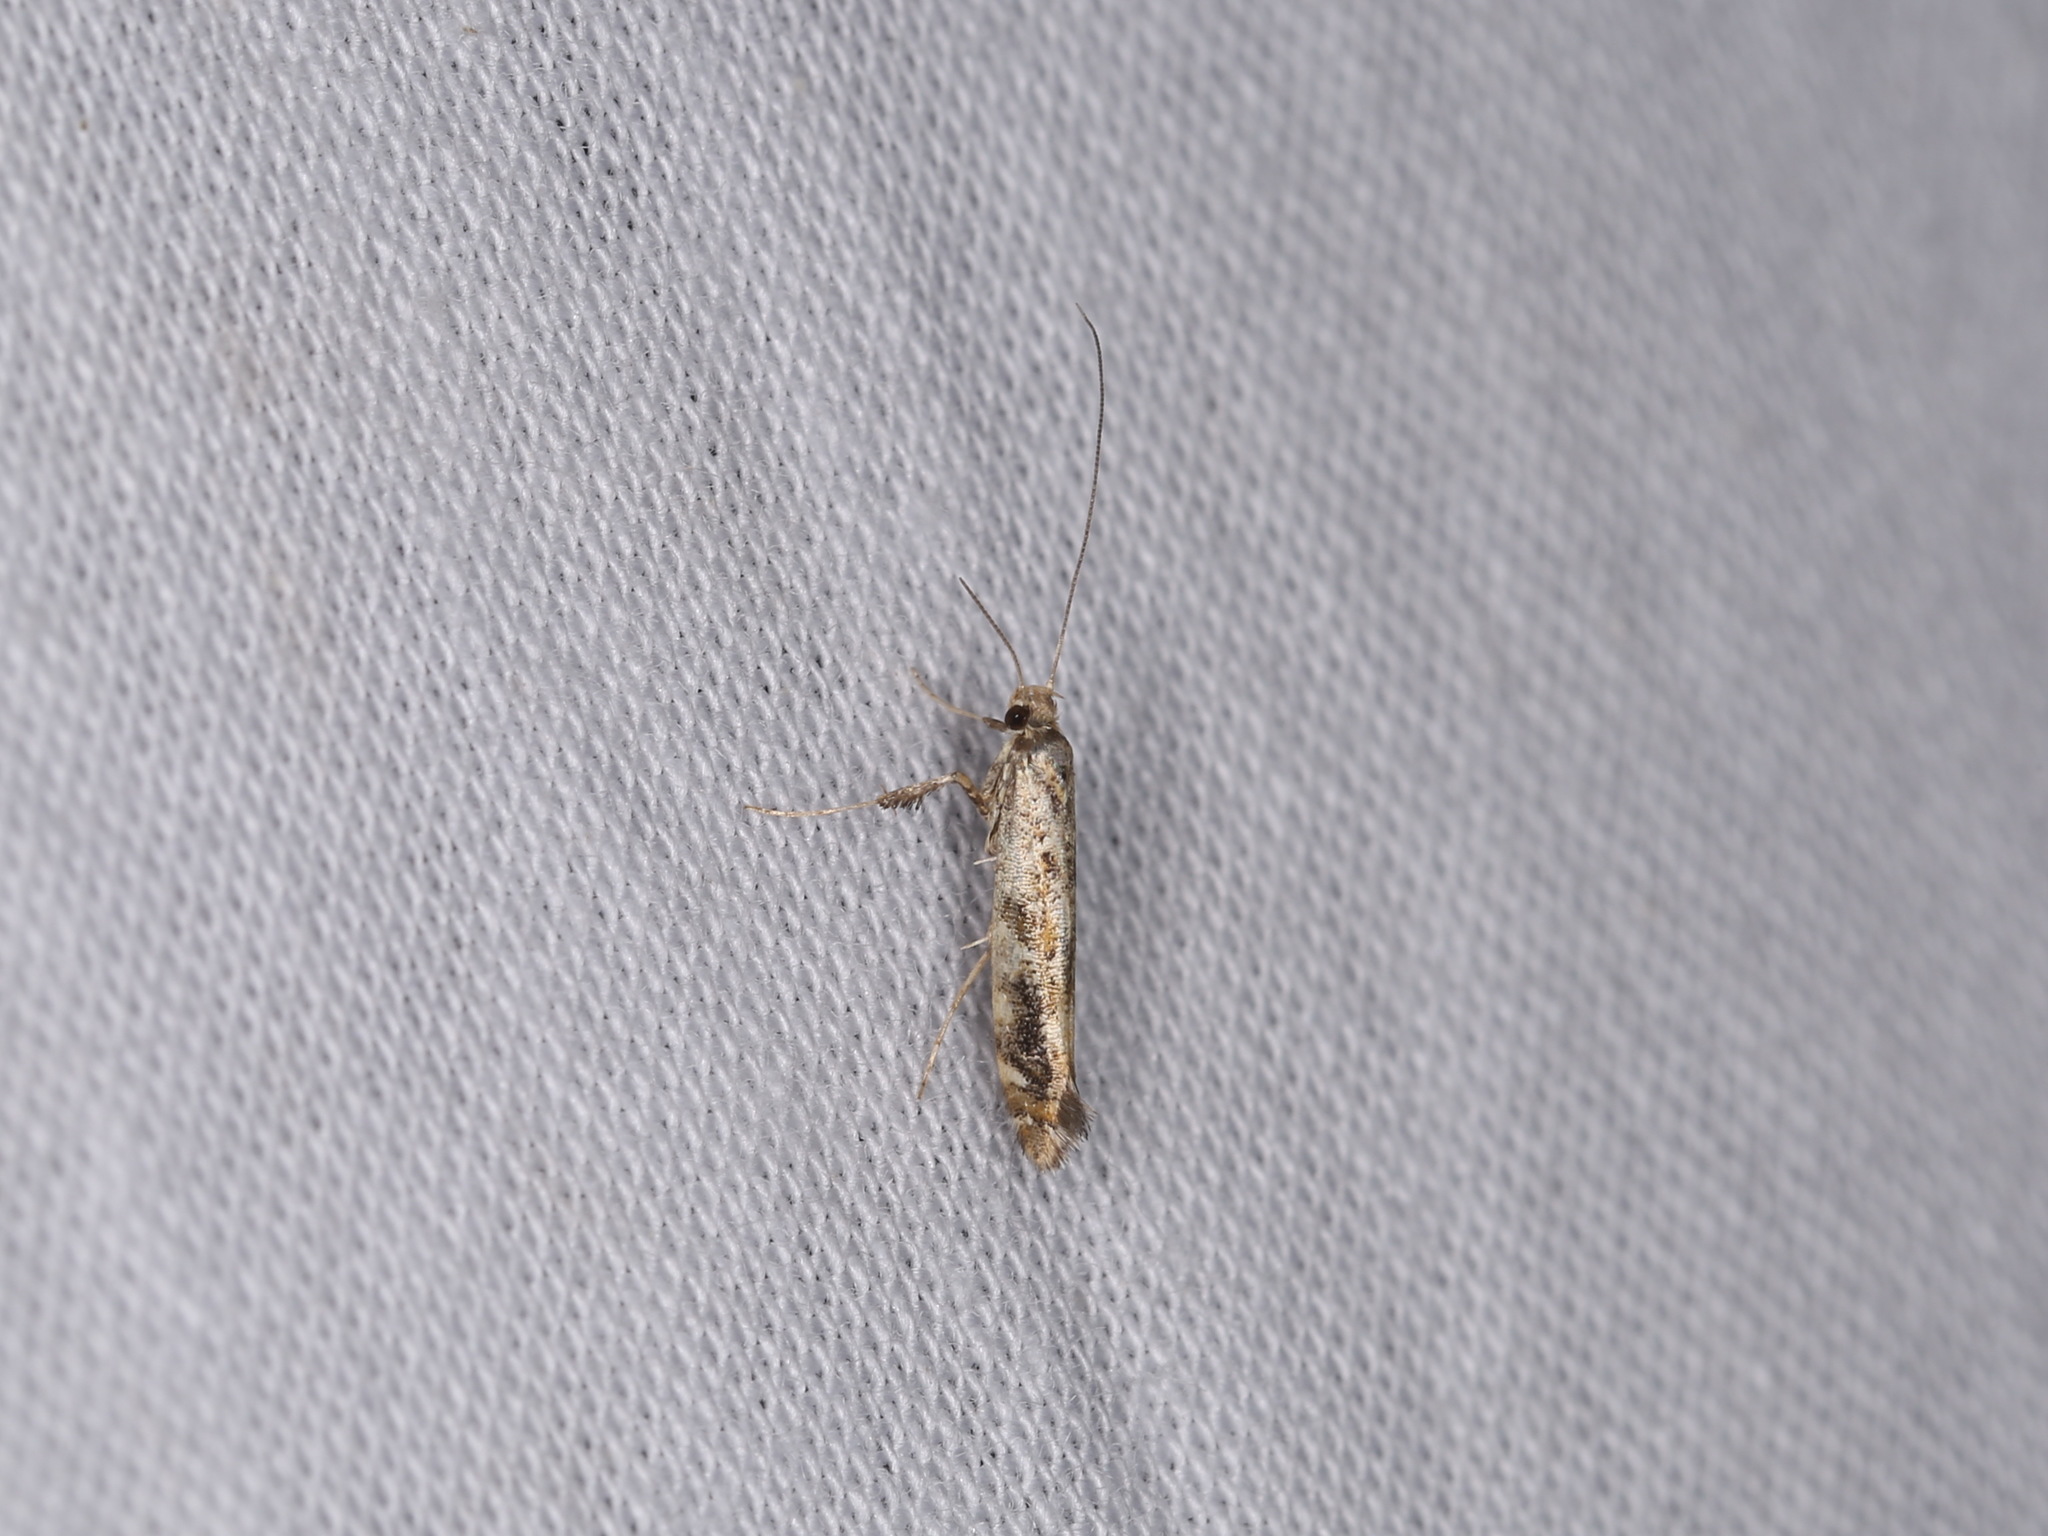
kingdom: Animalia
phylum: Arthropoda
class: Insecta
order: Lepidoptera
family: Gracillariidae
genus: Gracillaria
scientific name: Gracillaria syringella
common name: Common slender
